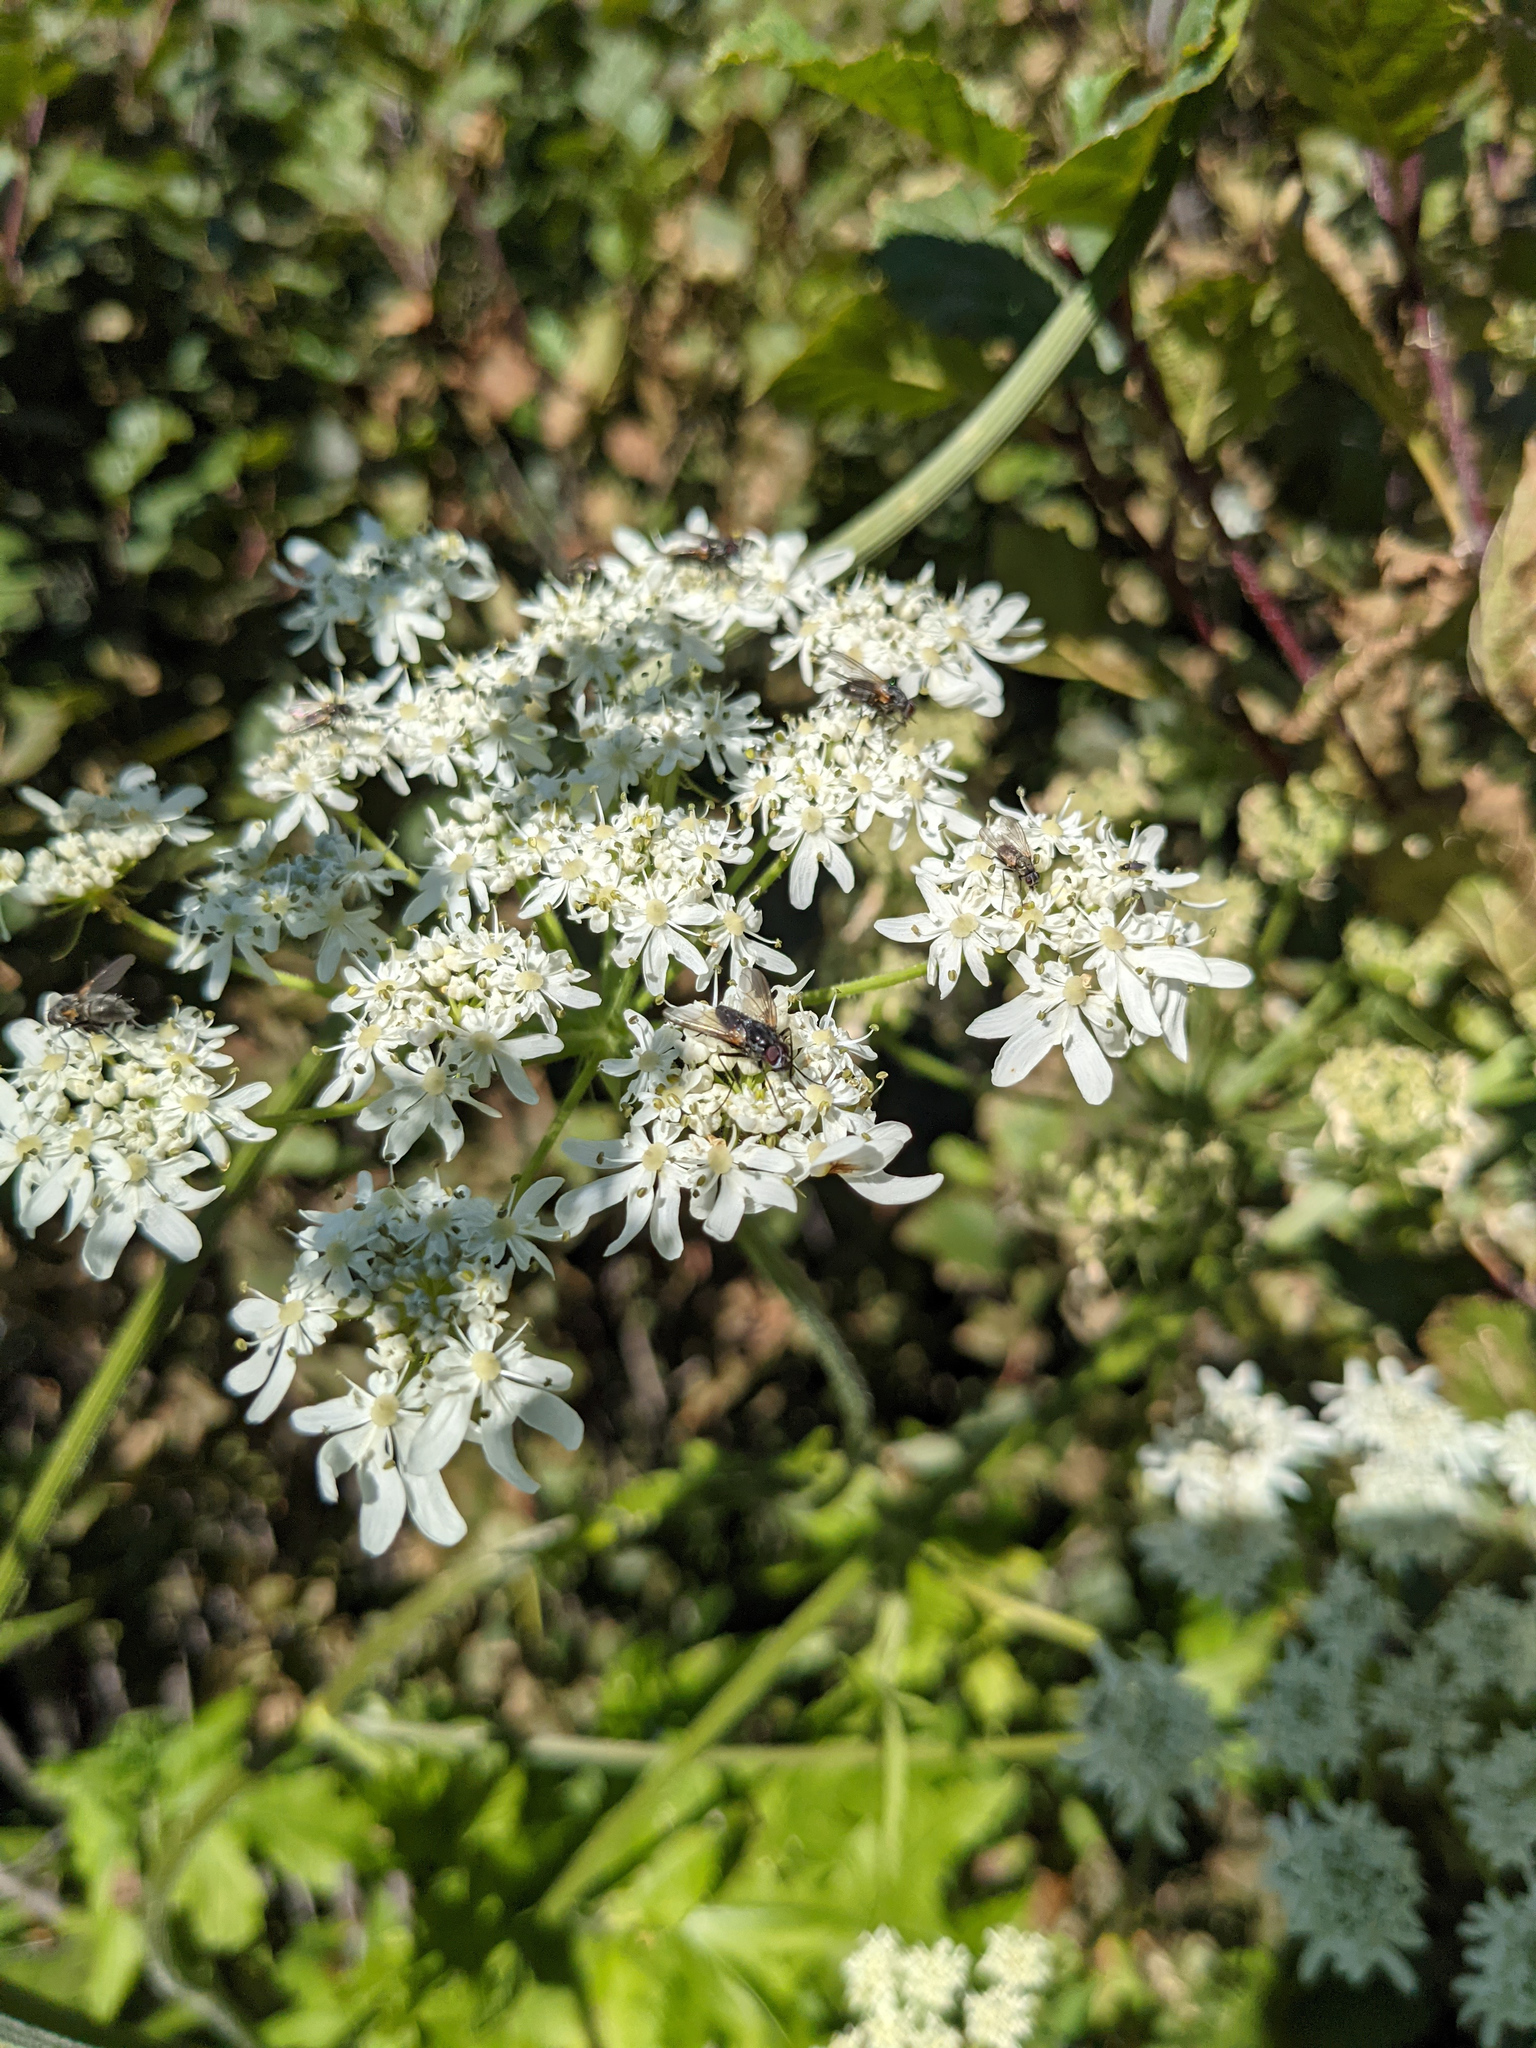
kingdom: Plantae
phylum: Tracheophyta
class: Magnoliopsida
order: Apiales
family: Apiaceae
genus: Heracleum
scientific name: Heracleum sphondylium
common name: Hogweed
